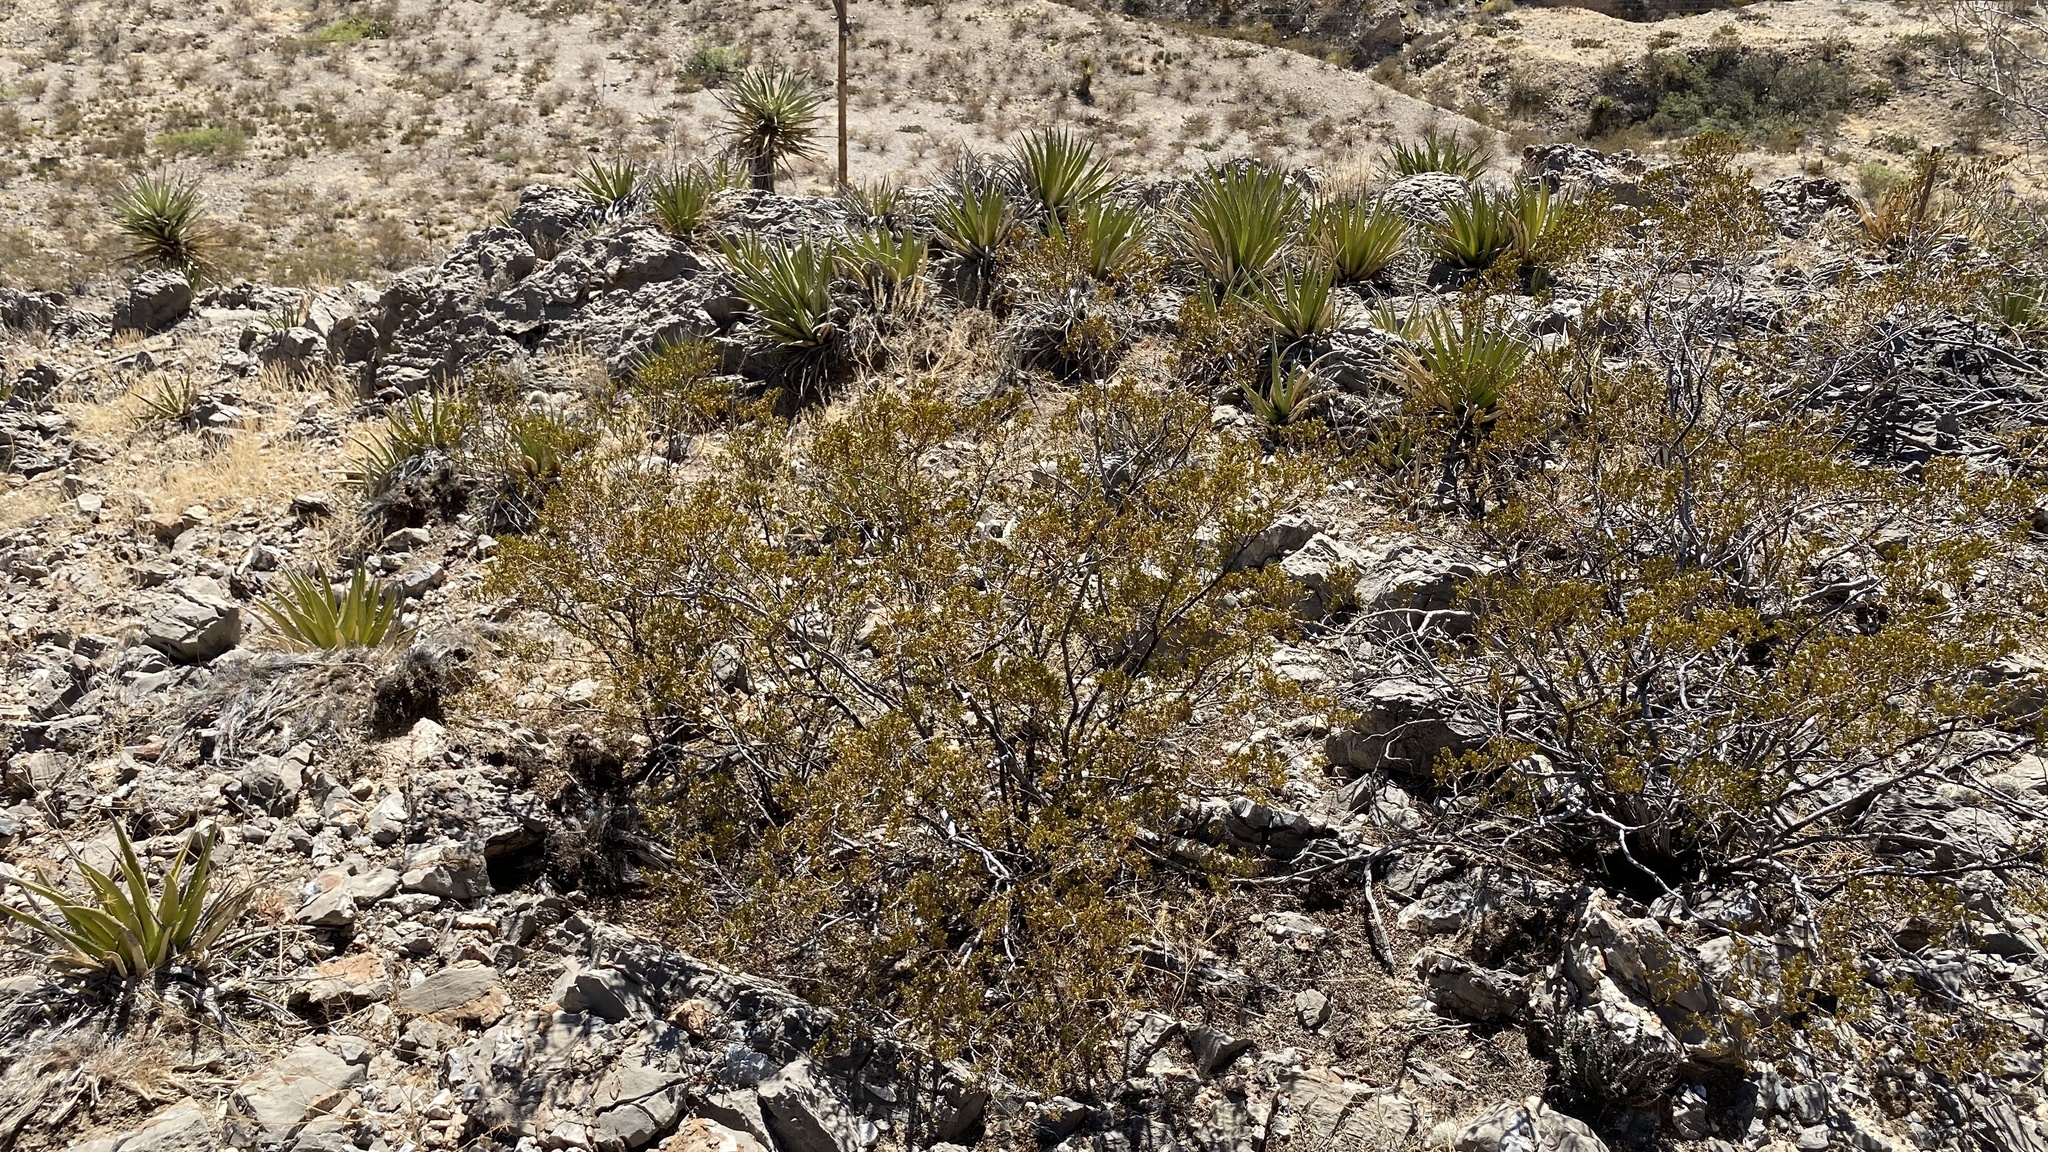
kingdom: Plantae
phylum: Tracheophyta
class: Magnoliopsida
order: Zygophyllales
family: Zygophyllaceae
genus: Larrea
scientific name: Larrea tridentata
